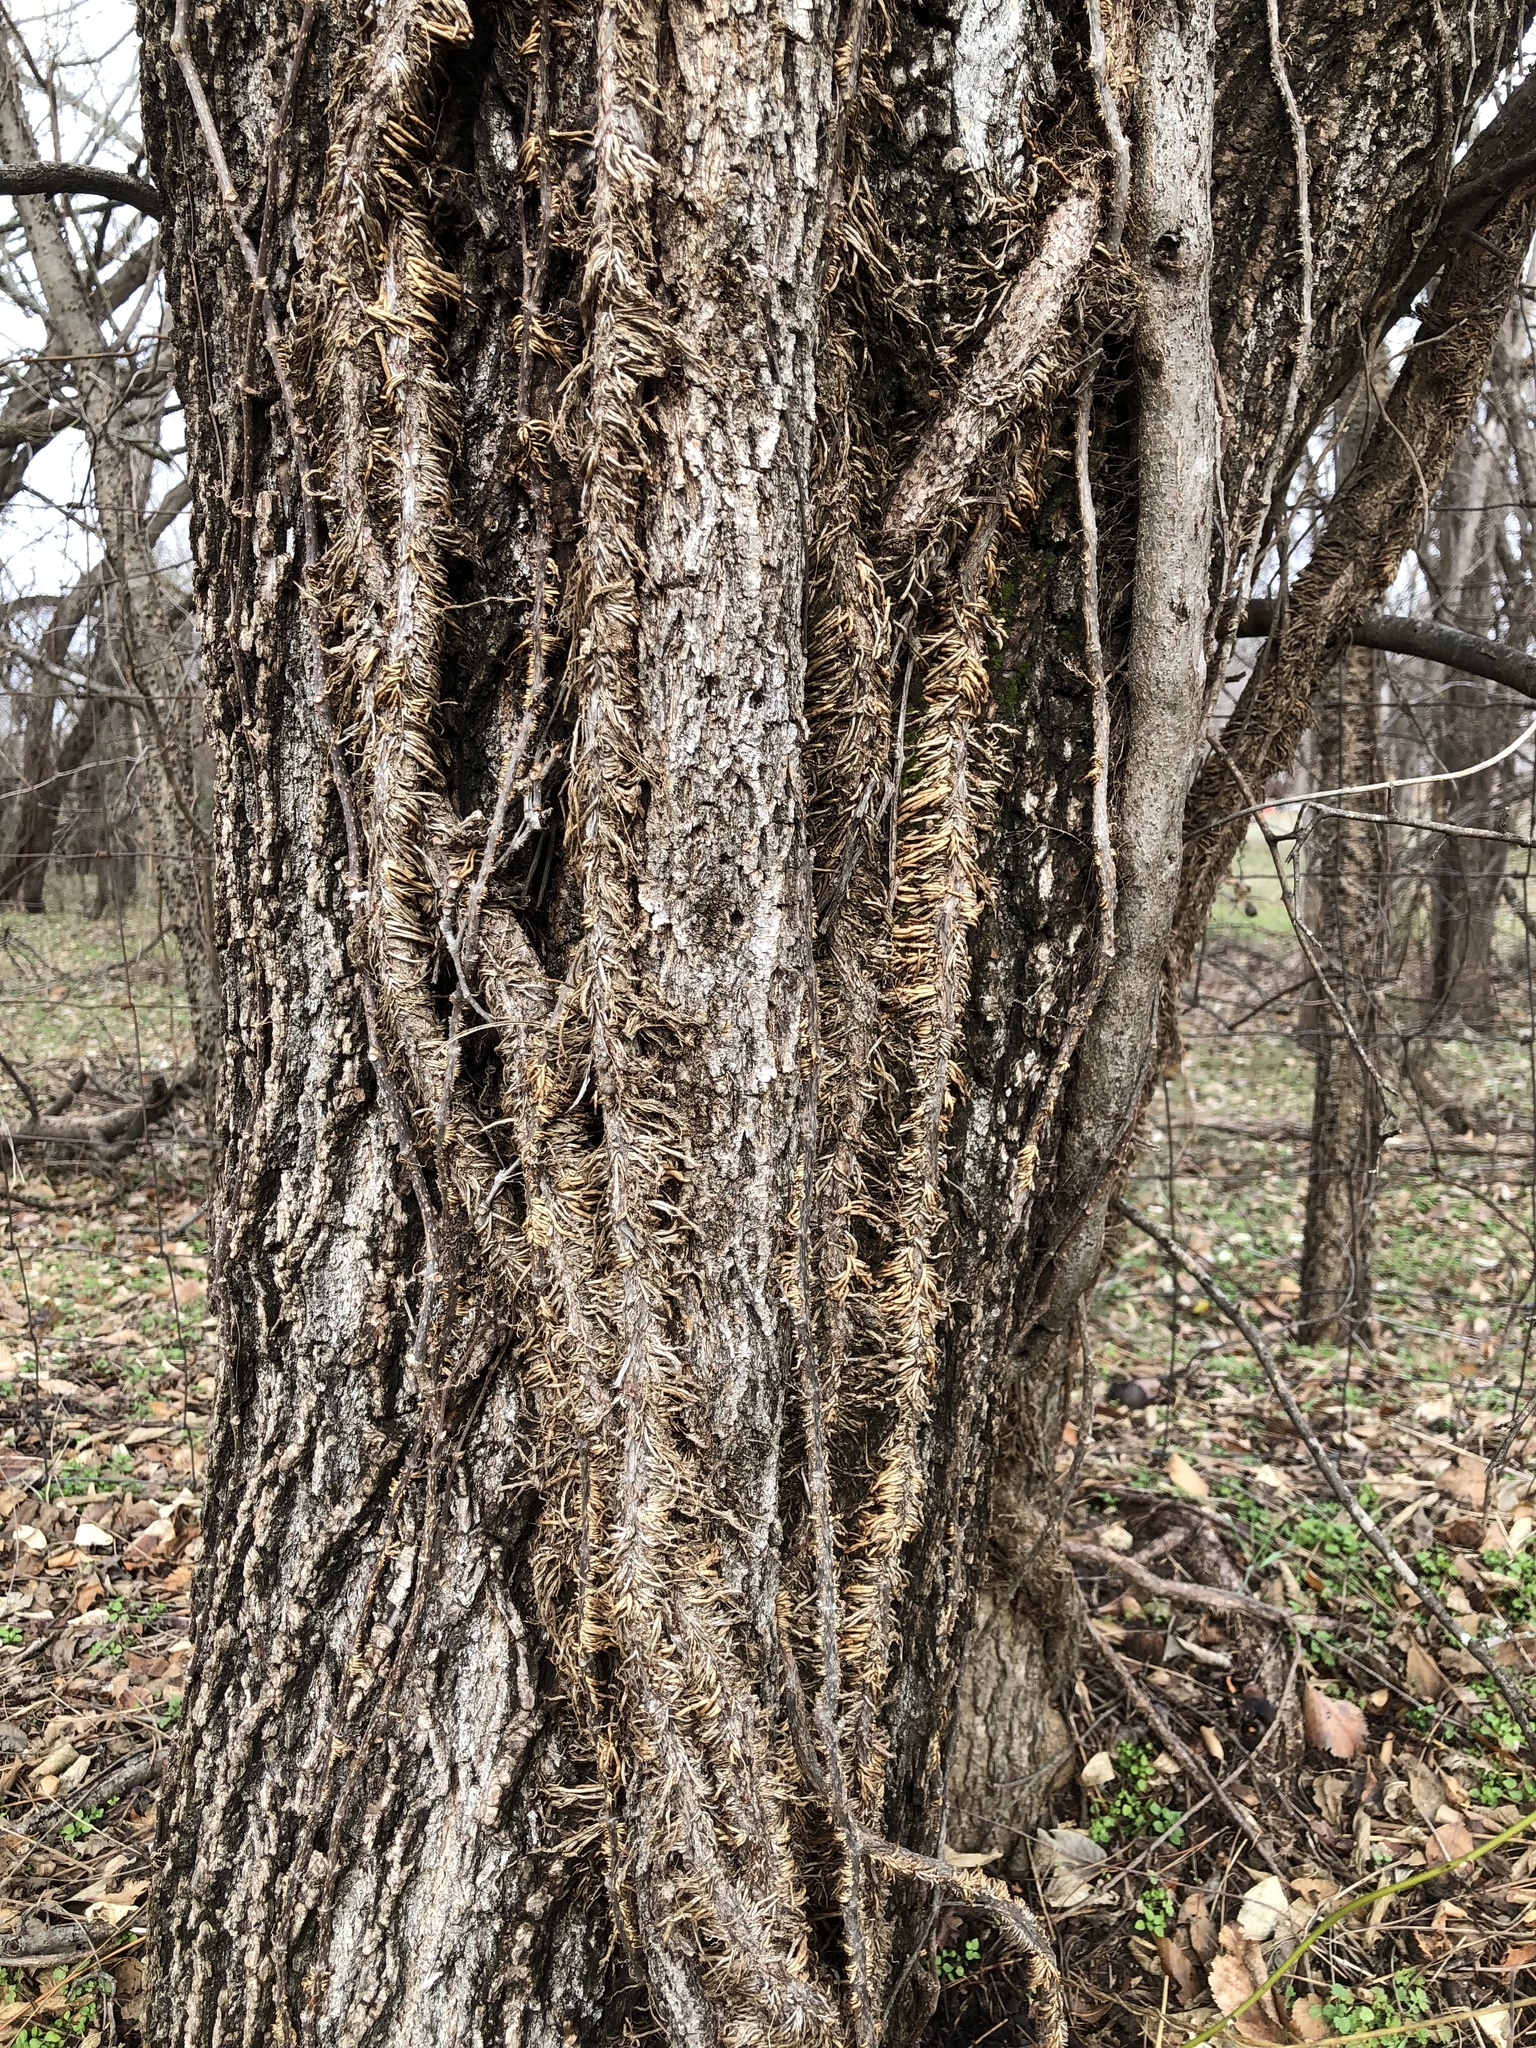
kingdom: Plantae
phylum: Tracheophyta
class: Magnoliopsida
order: Sapindales
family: Anacardiaceae
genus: Toxicodendron
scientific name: Toxicodendron radicans
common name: Poison ivy
